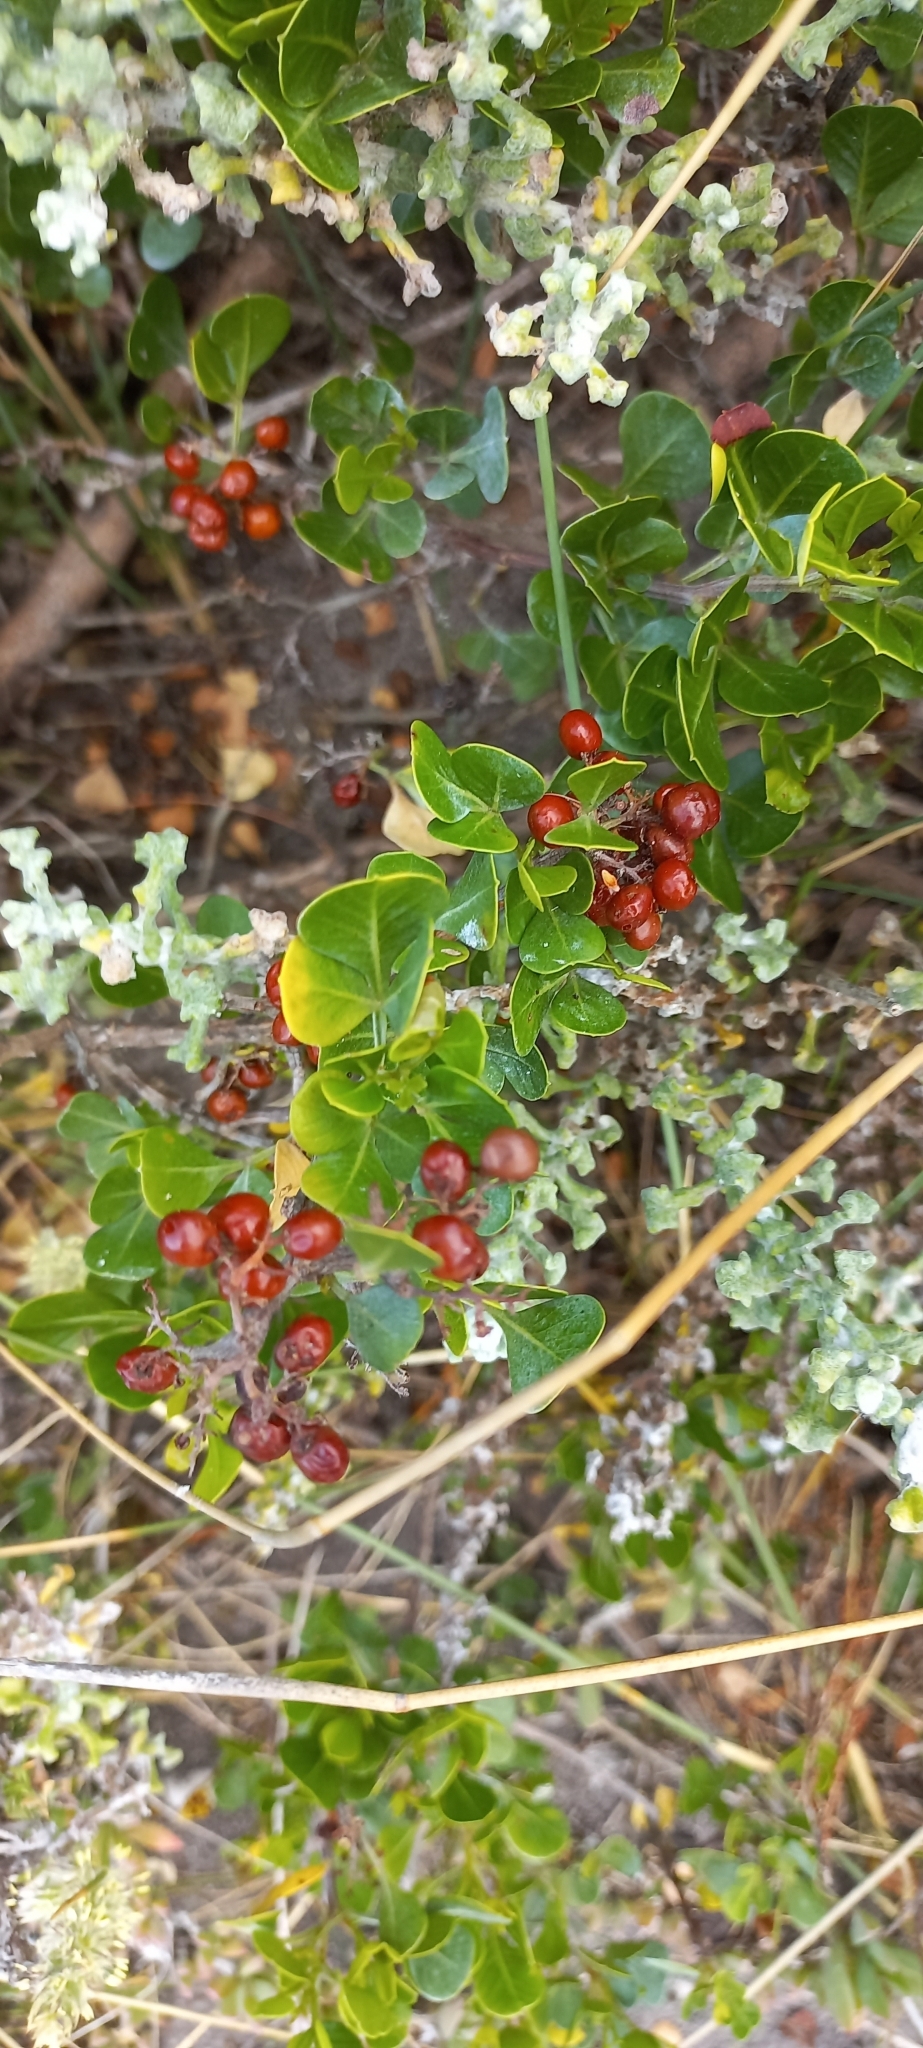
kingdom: Plantae
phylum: Tracheophyta
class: Magnoliopsida
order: Sapindales
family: Anacardiaceae
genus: Searsia
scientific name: Searsia glauca
